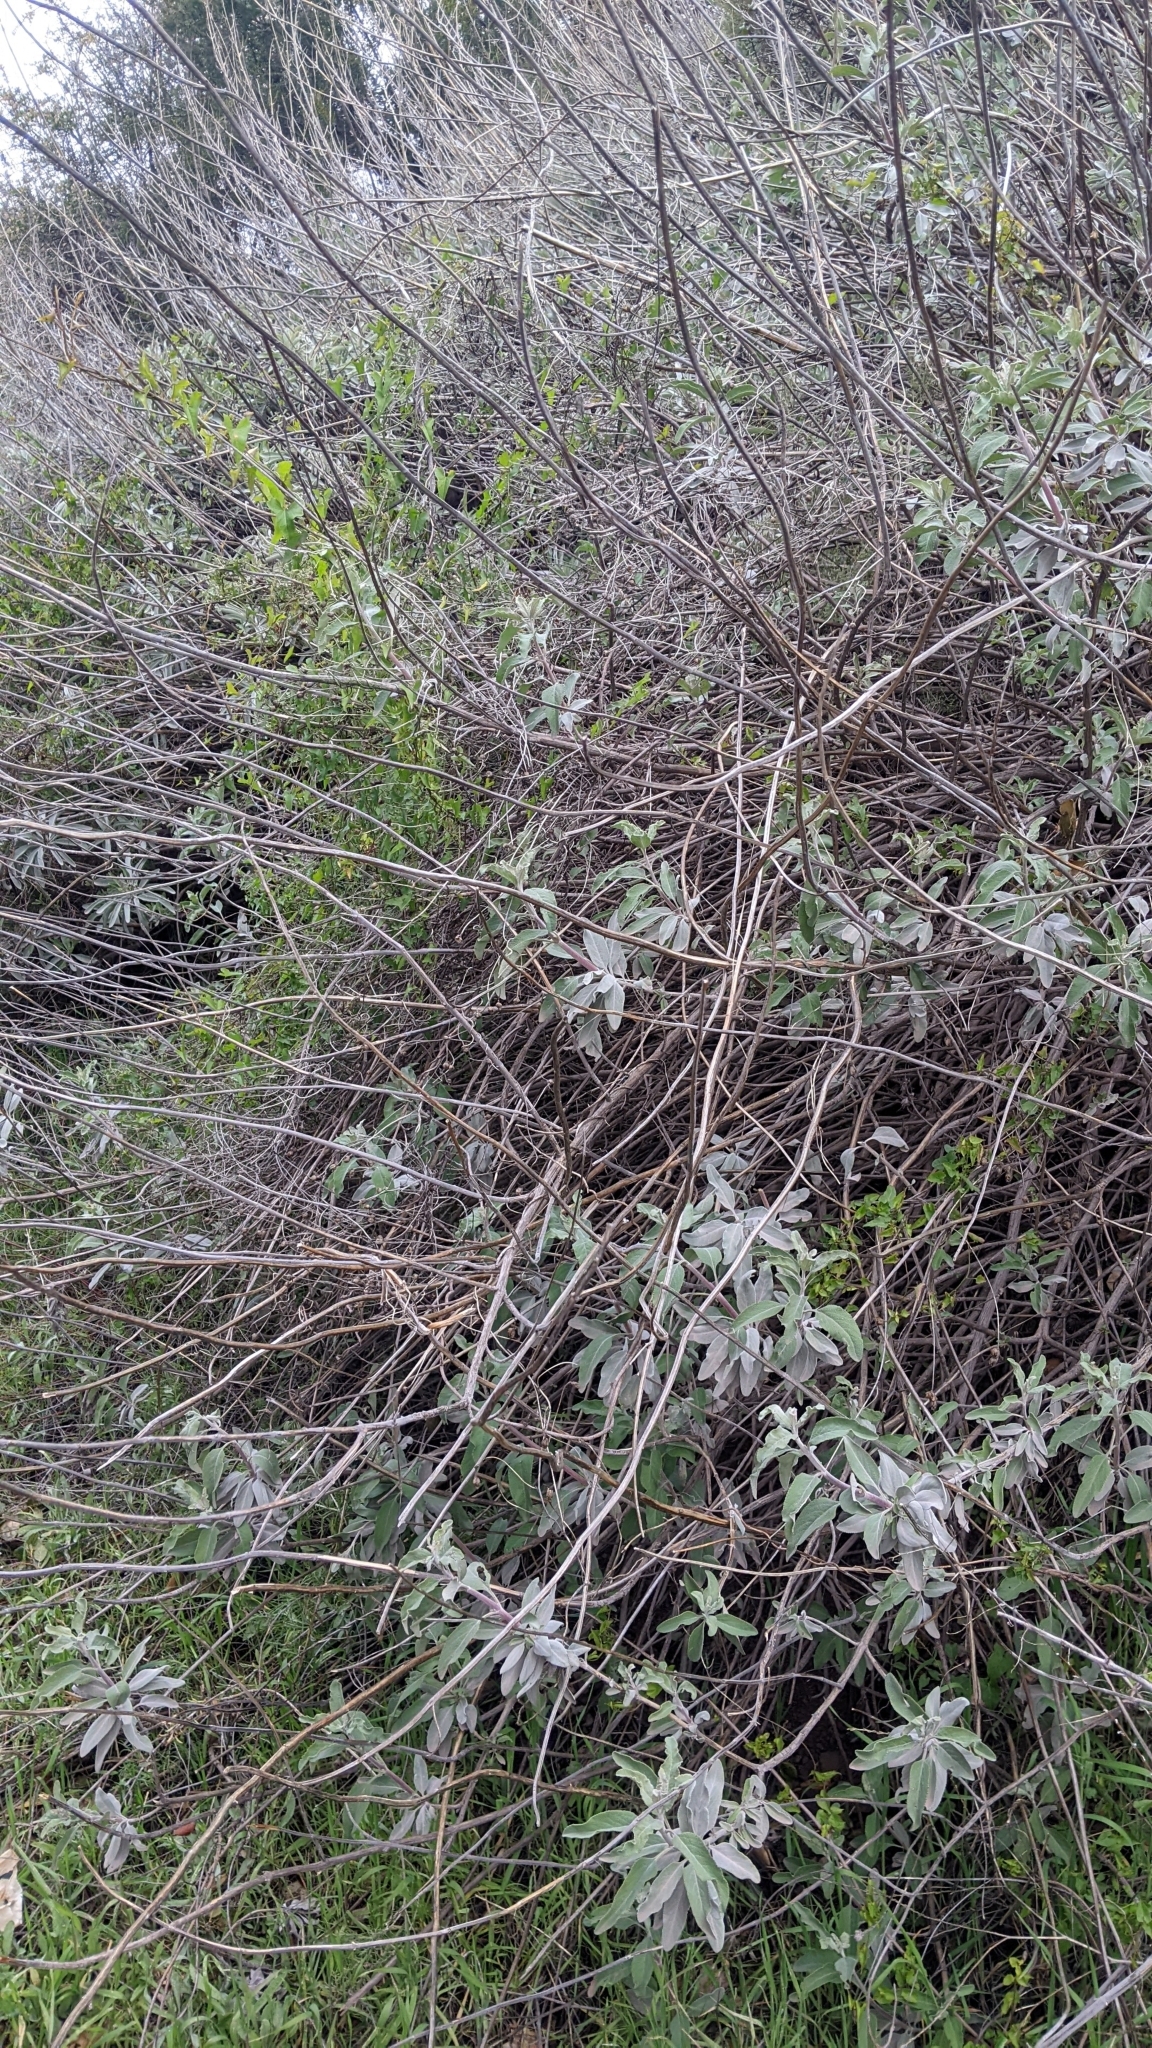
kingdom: Plantae
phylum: Tracheophyta
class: Magnoliopsida
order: Lamiales
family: Lamiaceae
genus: Salvia
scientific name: Salvia
